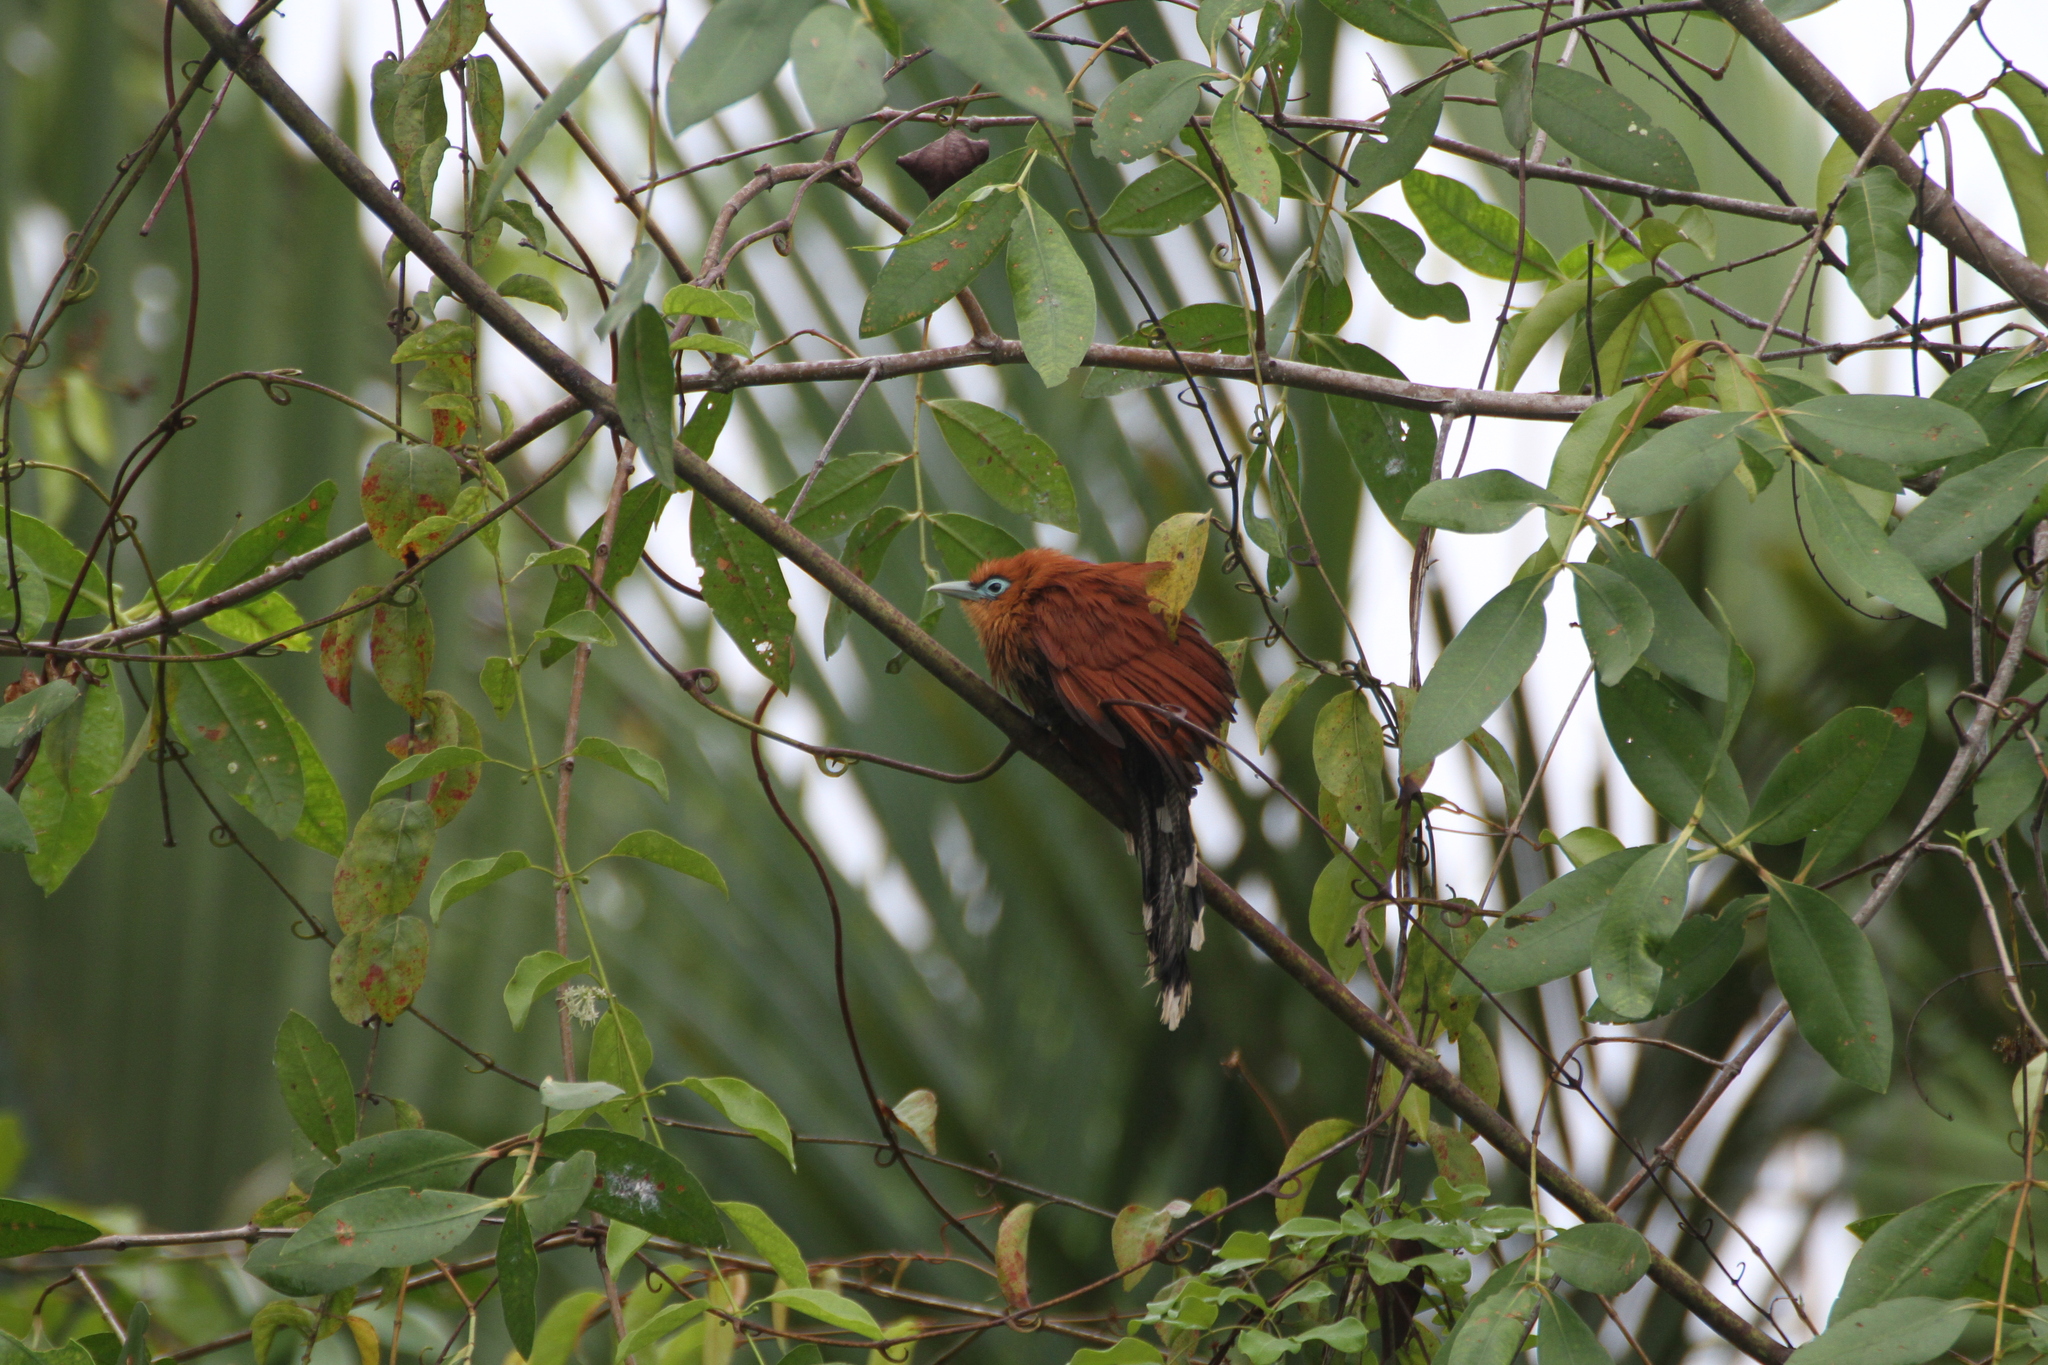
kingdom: Animalia
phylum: Chordata
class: Aves
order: Cuculiformes
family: Cuculidae
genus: Rhinortha
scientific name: Rhinortha chlorophaea
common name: Raffles's malkoha
